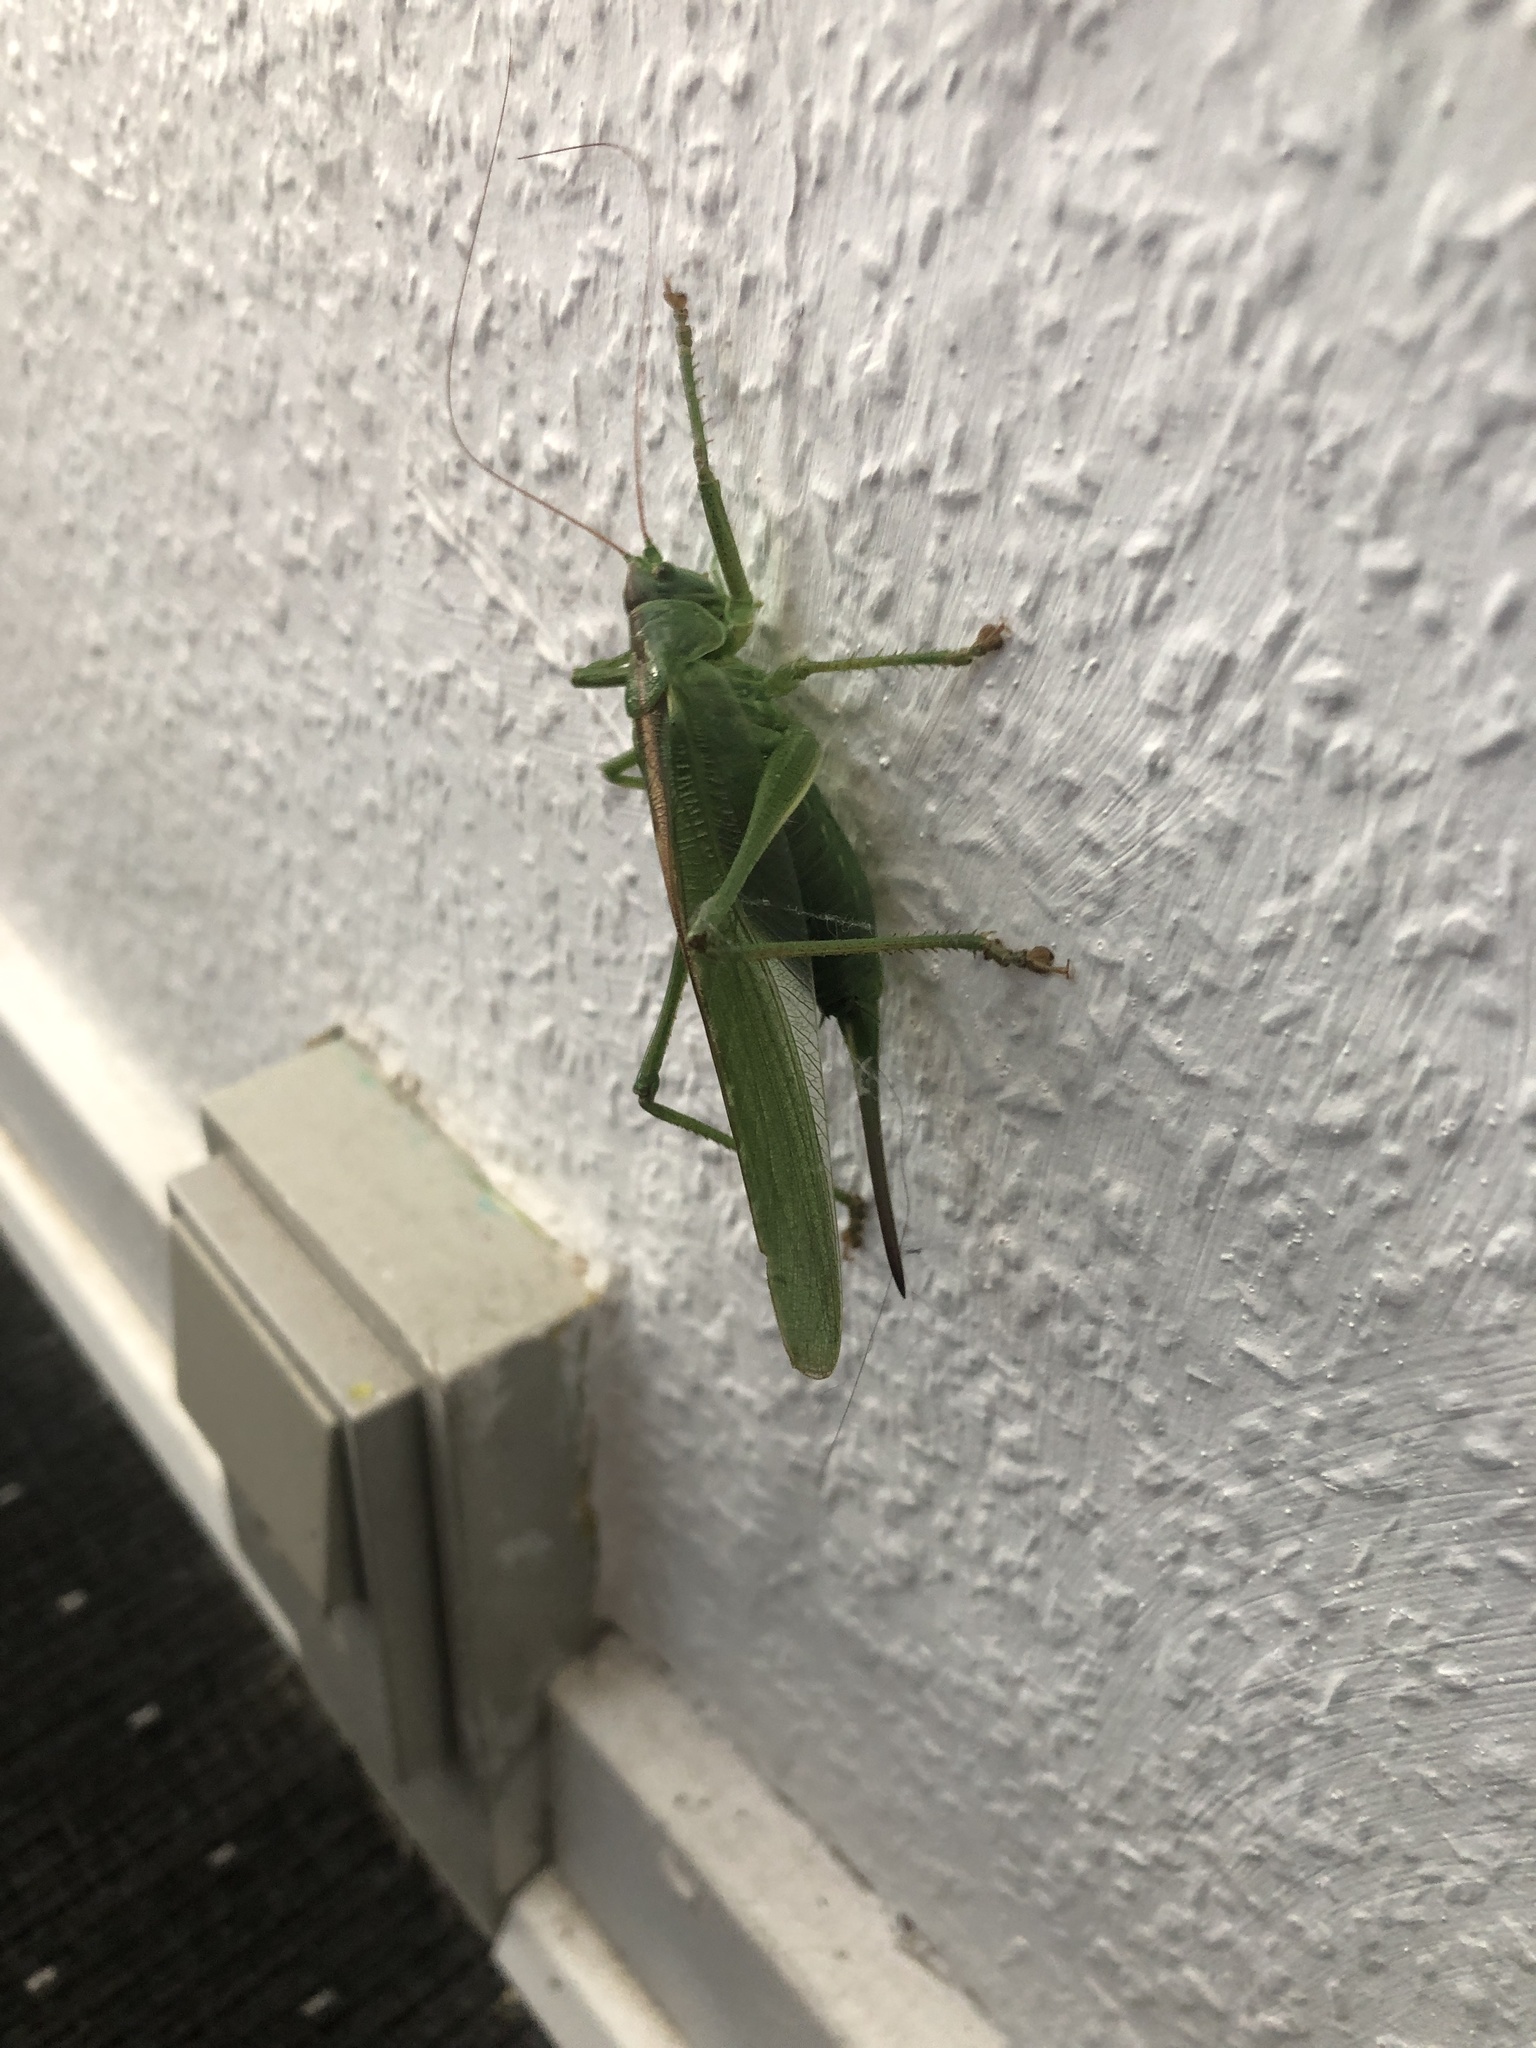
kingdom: Animalia
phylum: Arthropoda
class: Insecta
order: Orthoptera
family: Tettigoniidae
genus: Tettigonia
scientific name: Tettigonia viridissima
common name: Great green bush-cricket
